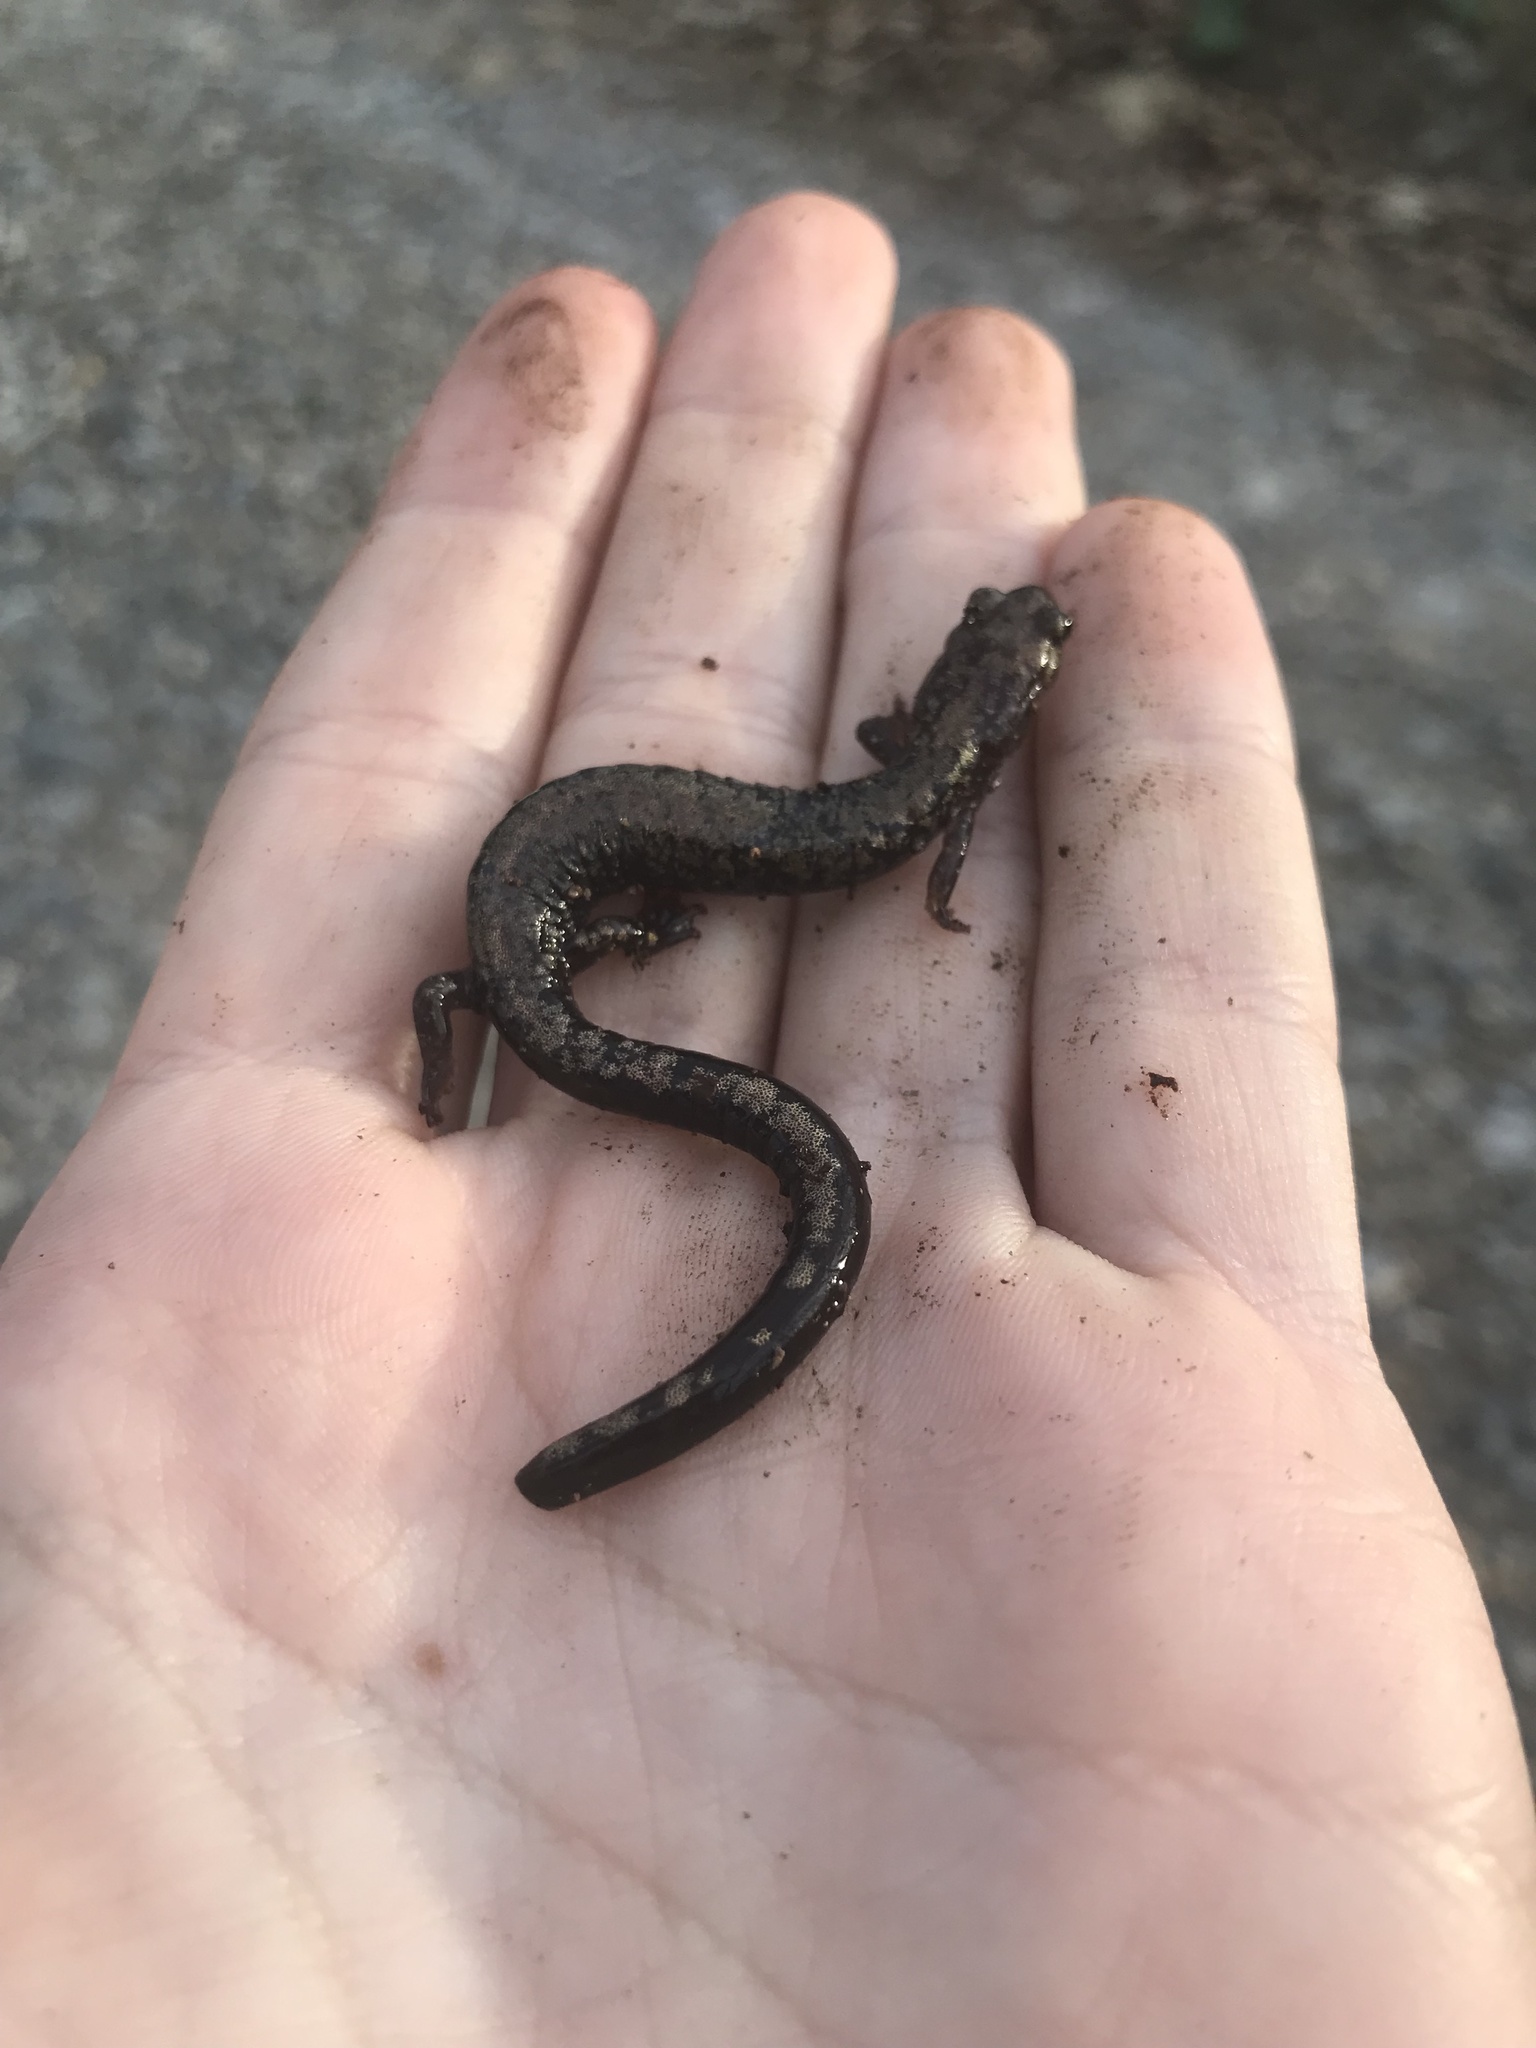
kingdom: Animalia
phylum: Chordata
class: Amphibia
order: Caudata
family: Plethodontidae
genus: Plethodon
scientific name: Plethodon hubrichti
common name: Peaks of otter salamander
